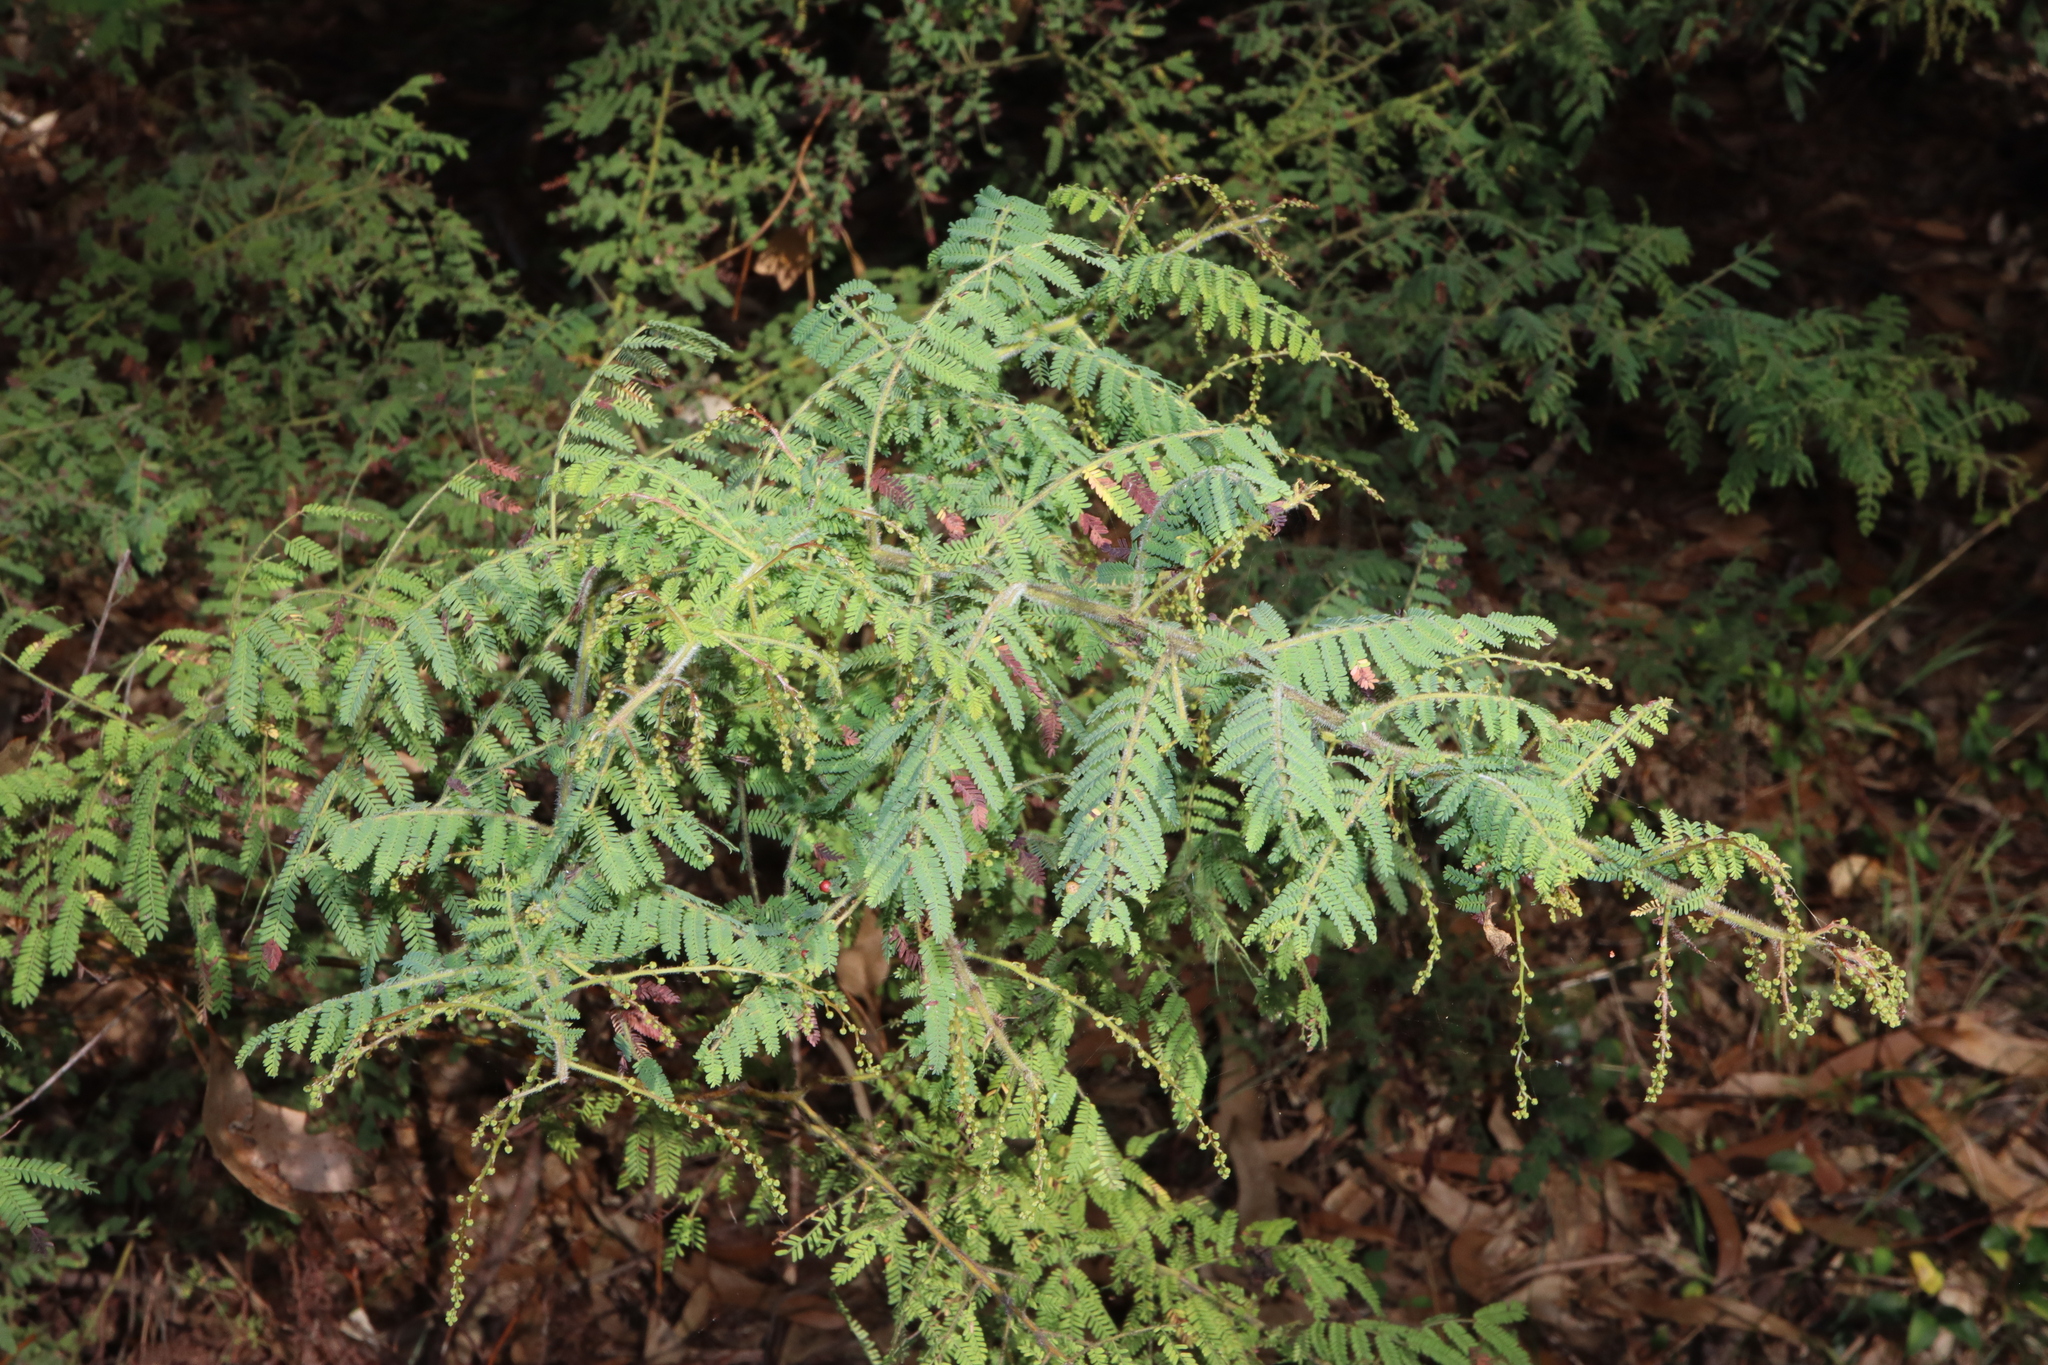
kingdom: Plantae
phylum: Tracheophyta
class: Magnoliopsida
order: Fabales
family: Fabaceae
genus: Acacia
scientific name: Acacia pubescens
